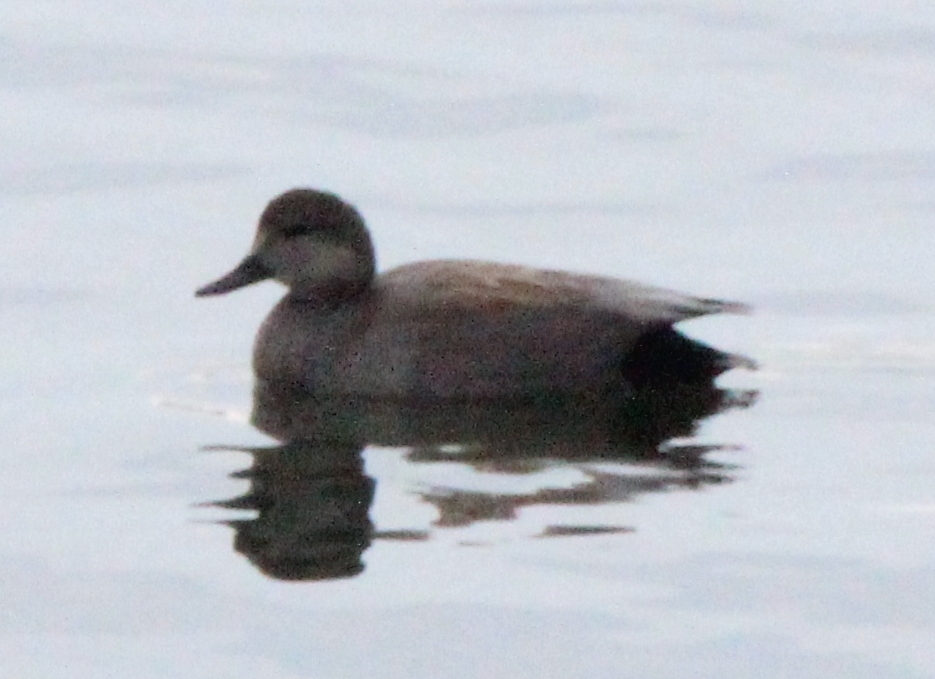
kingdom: Animalia
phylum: Chordata
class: Aves
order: Anseriformes
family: Anatidae
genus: Mareca
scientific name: Mareca strepera
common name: Gadwall
